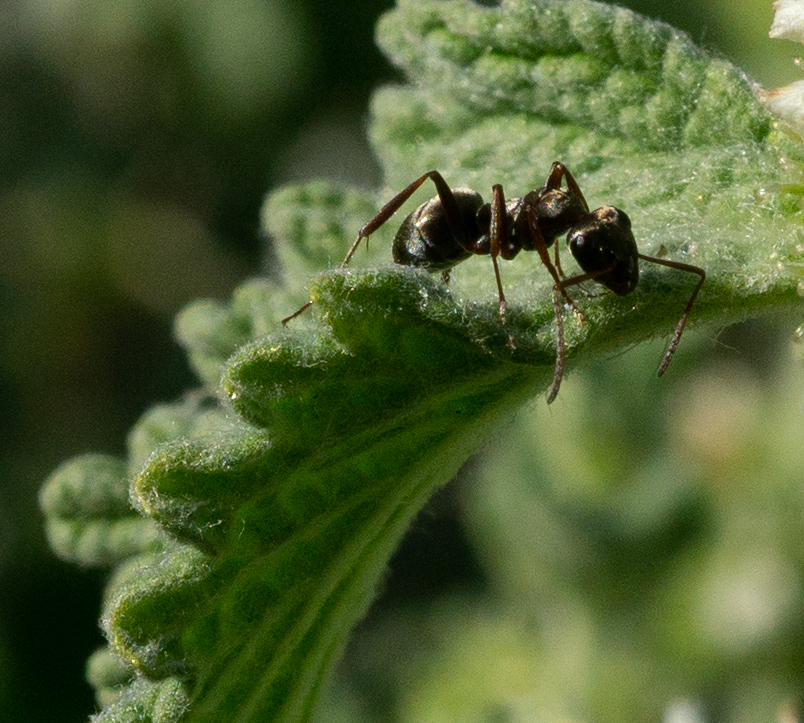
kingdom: Plantae
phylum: Tracheophyta
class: Magnoliopsida
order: Lamiales
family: Lamiaceae
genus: Marrubium
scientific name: Marrubium vulgare
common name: Horehound
